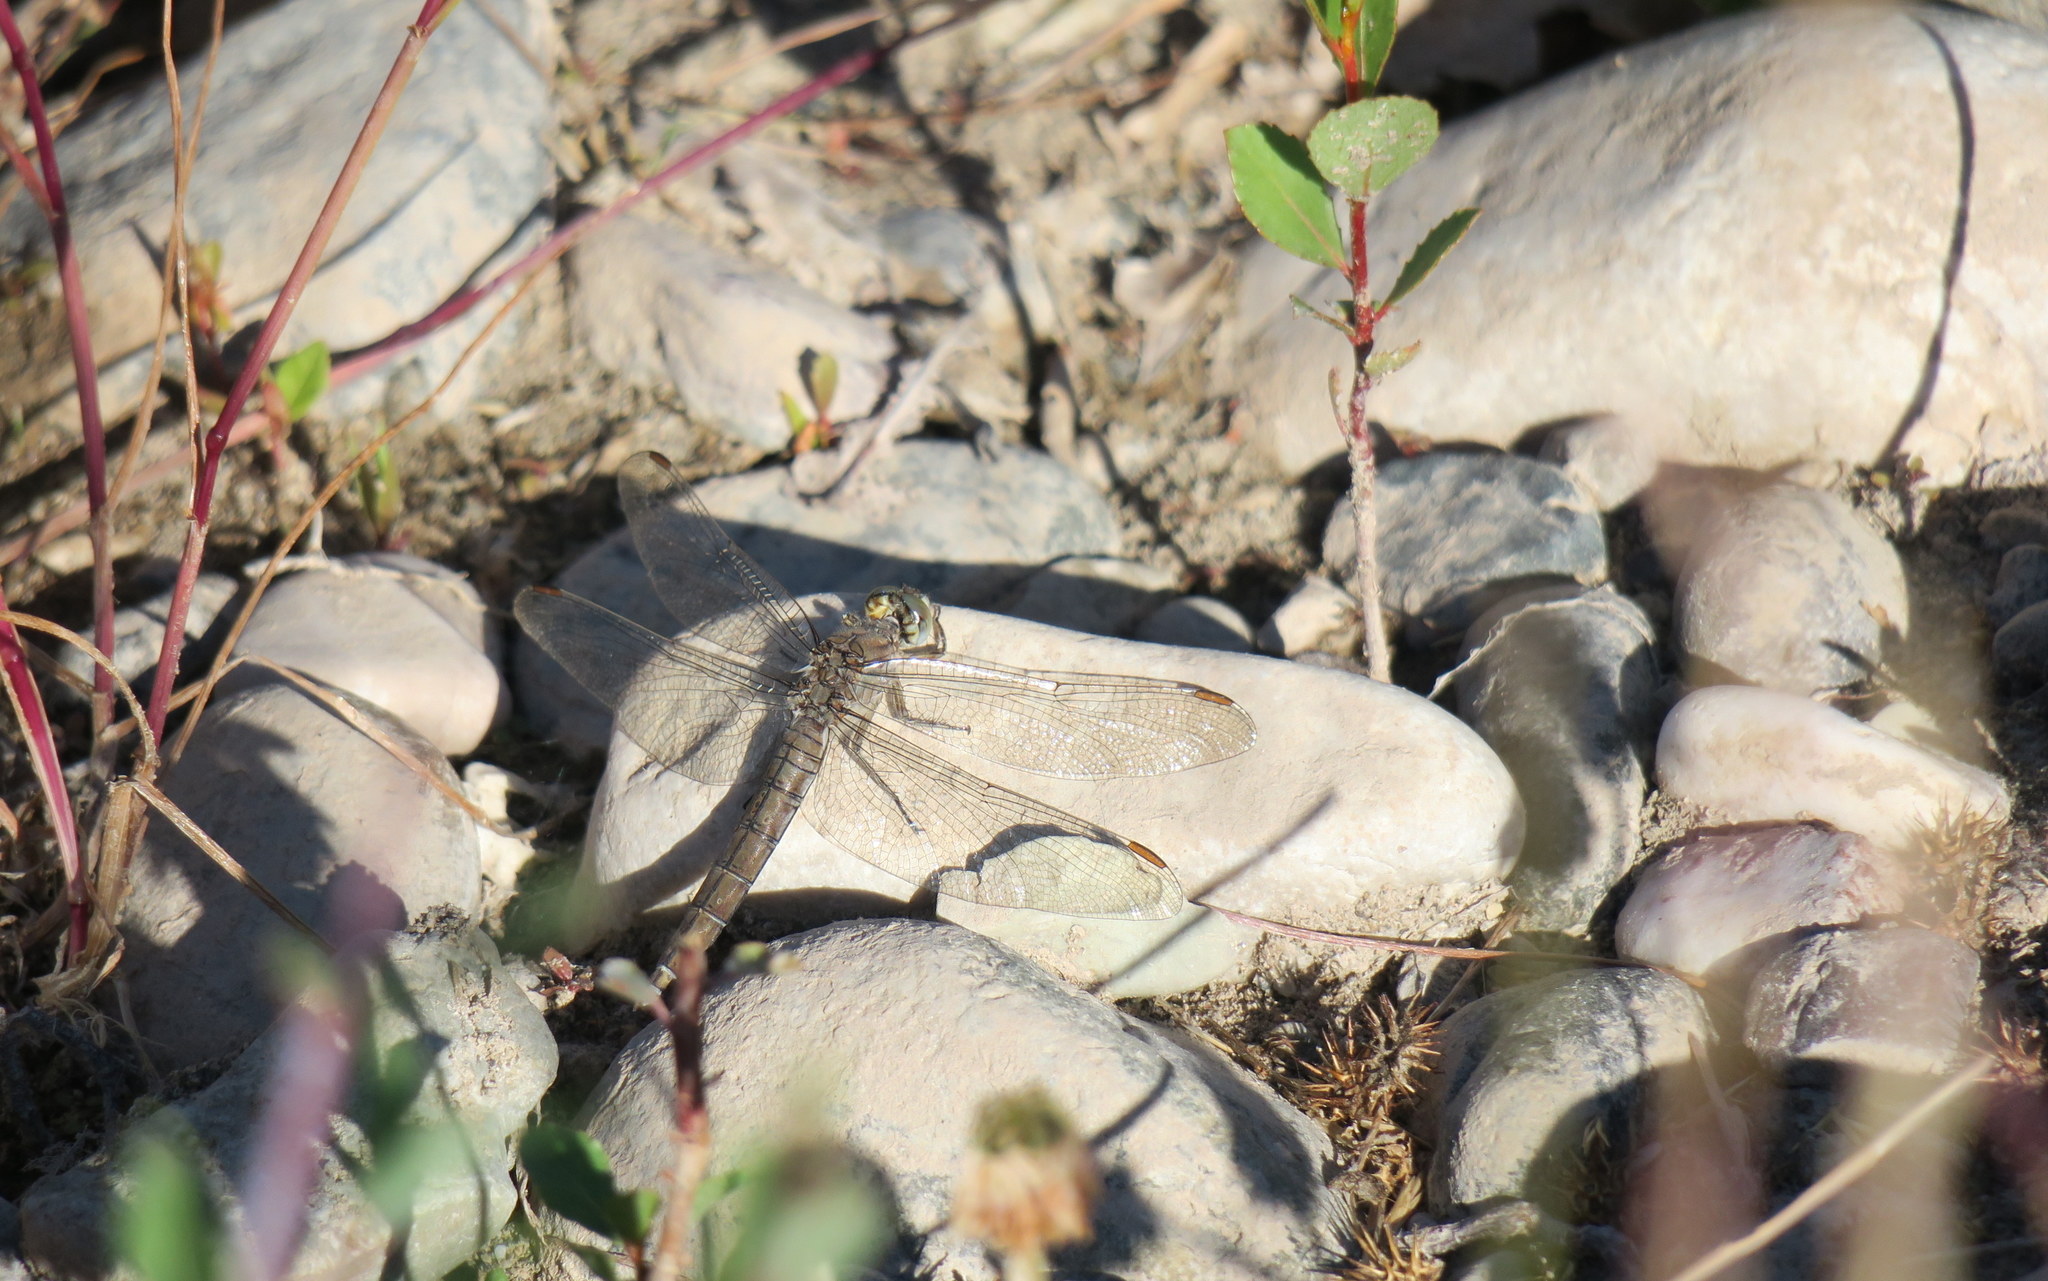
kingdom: Animalia
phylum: Arthropoda
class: Insecta
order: Odonata
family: Libellulidae
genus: Orthetrum
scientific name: Orthetrum brunneum
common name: Southern skimmer
